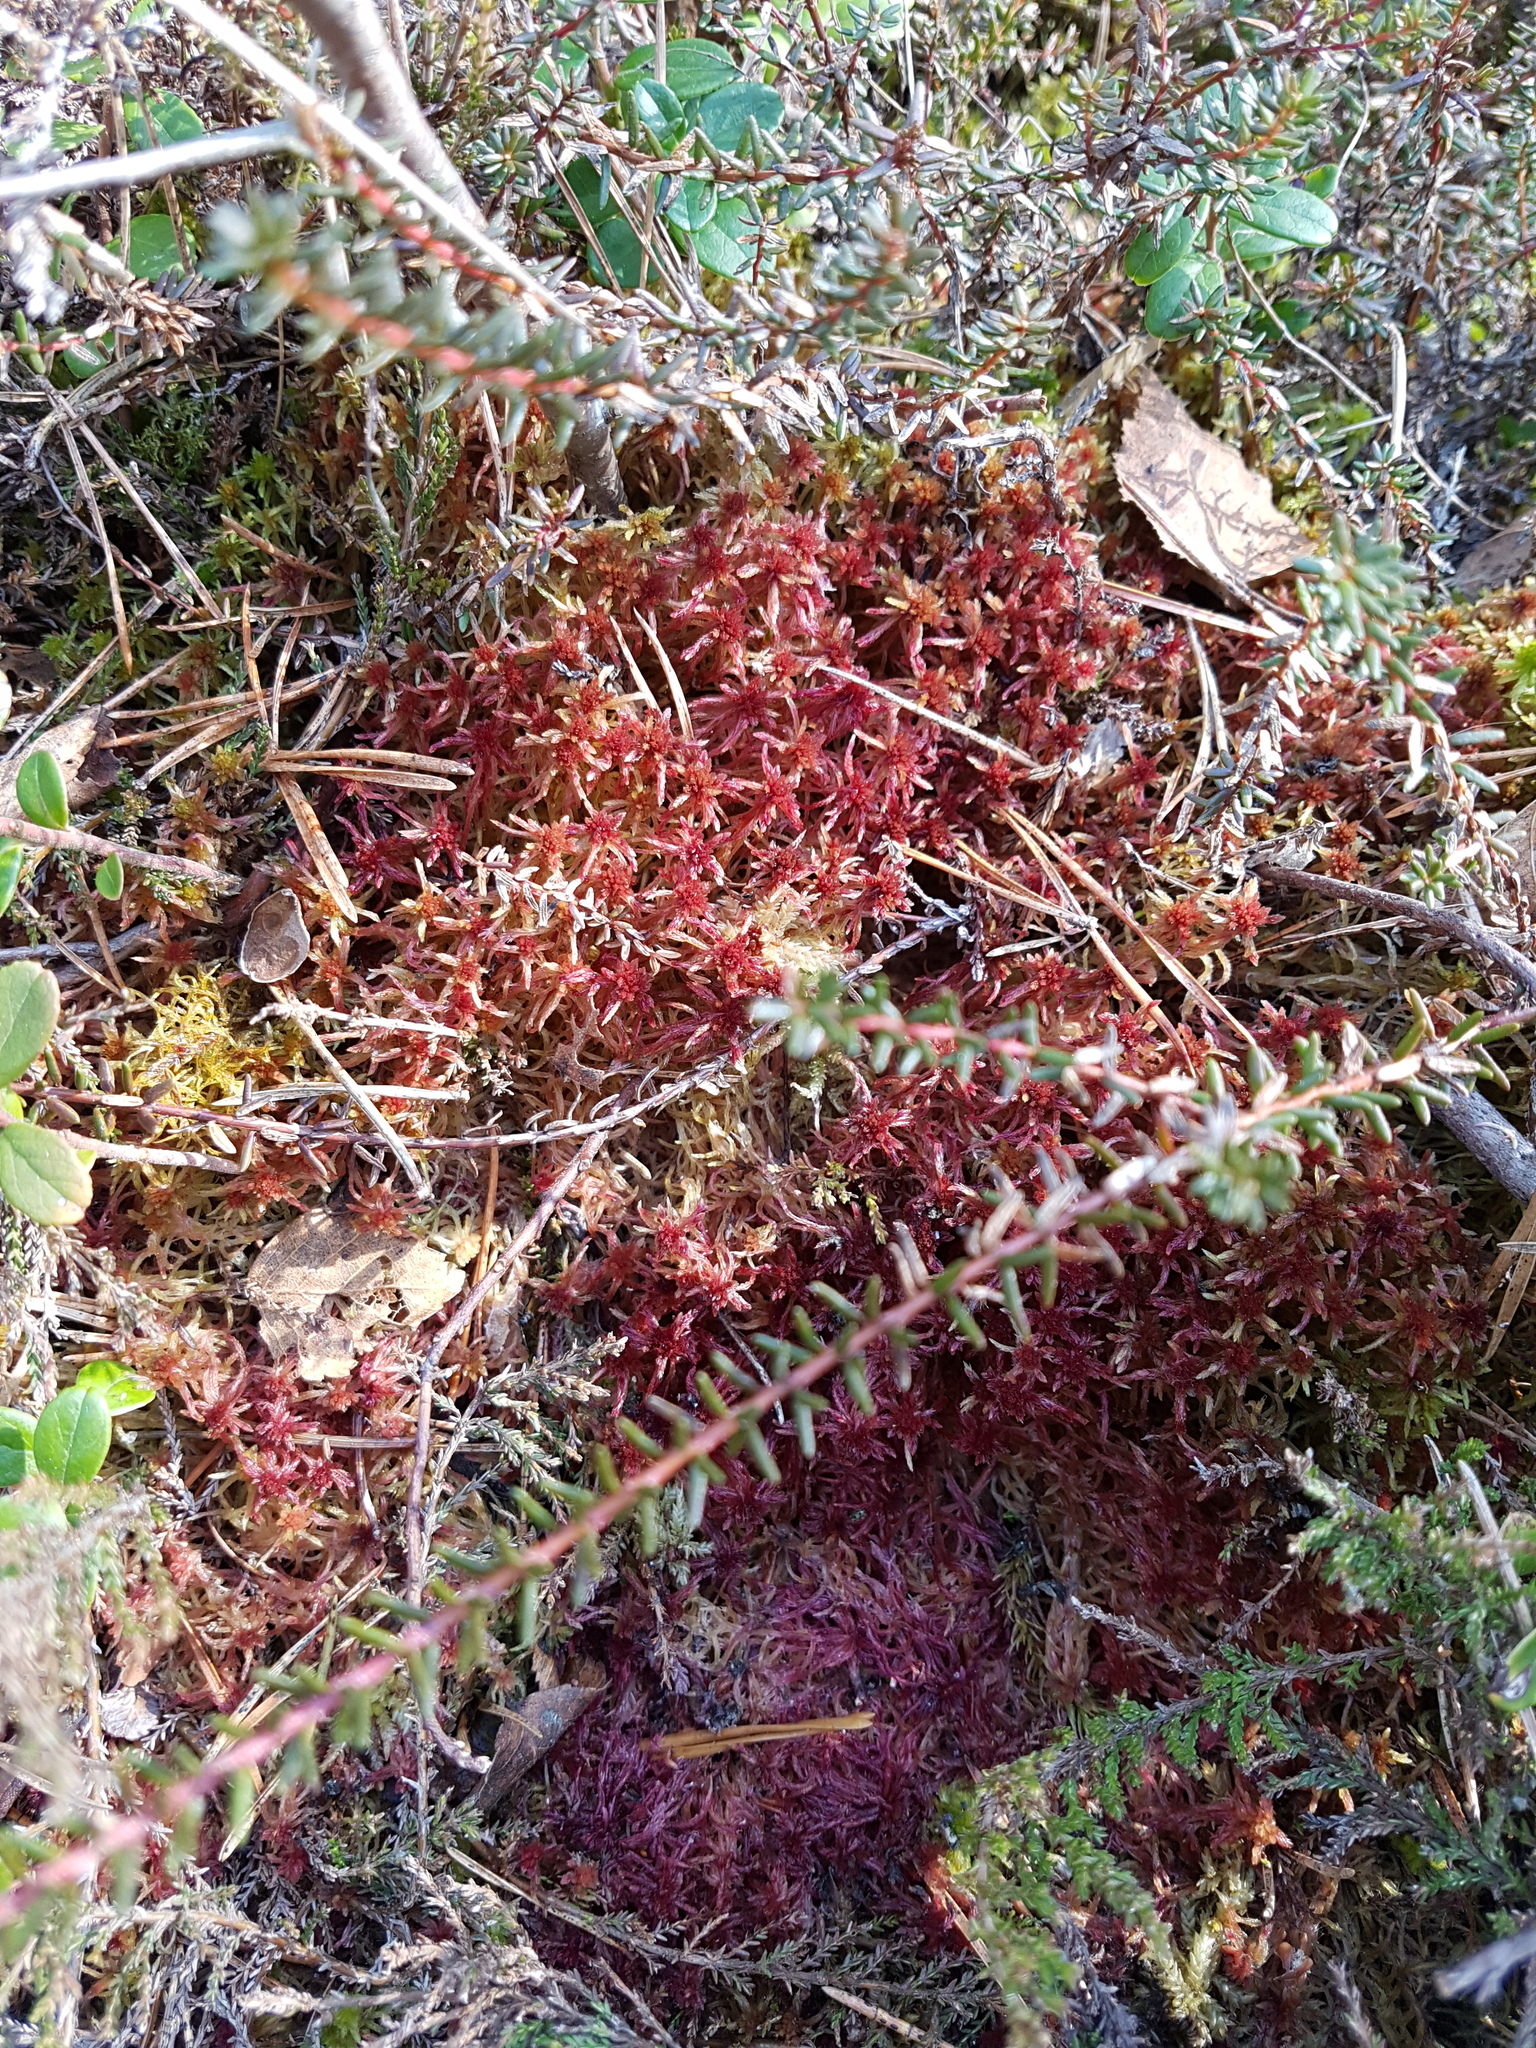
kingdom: Plantae
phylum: Tracheophyta
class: Magnoliopsida
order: Ericales
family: Ericaceae
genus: Empetrum
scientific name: Empetrum nigrum
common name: Black crowberry
